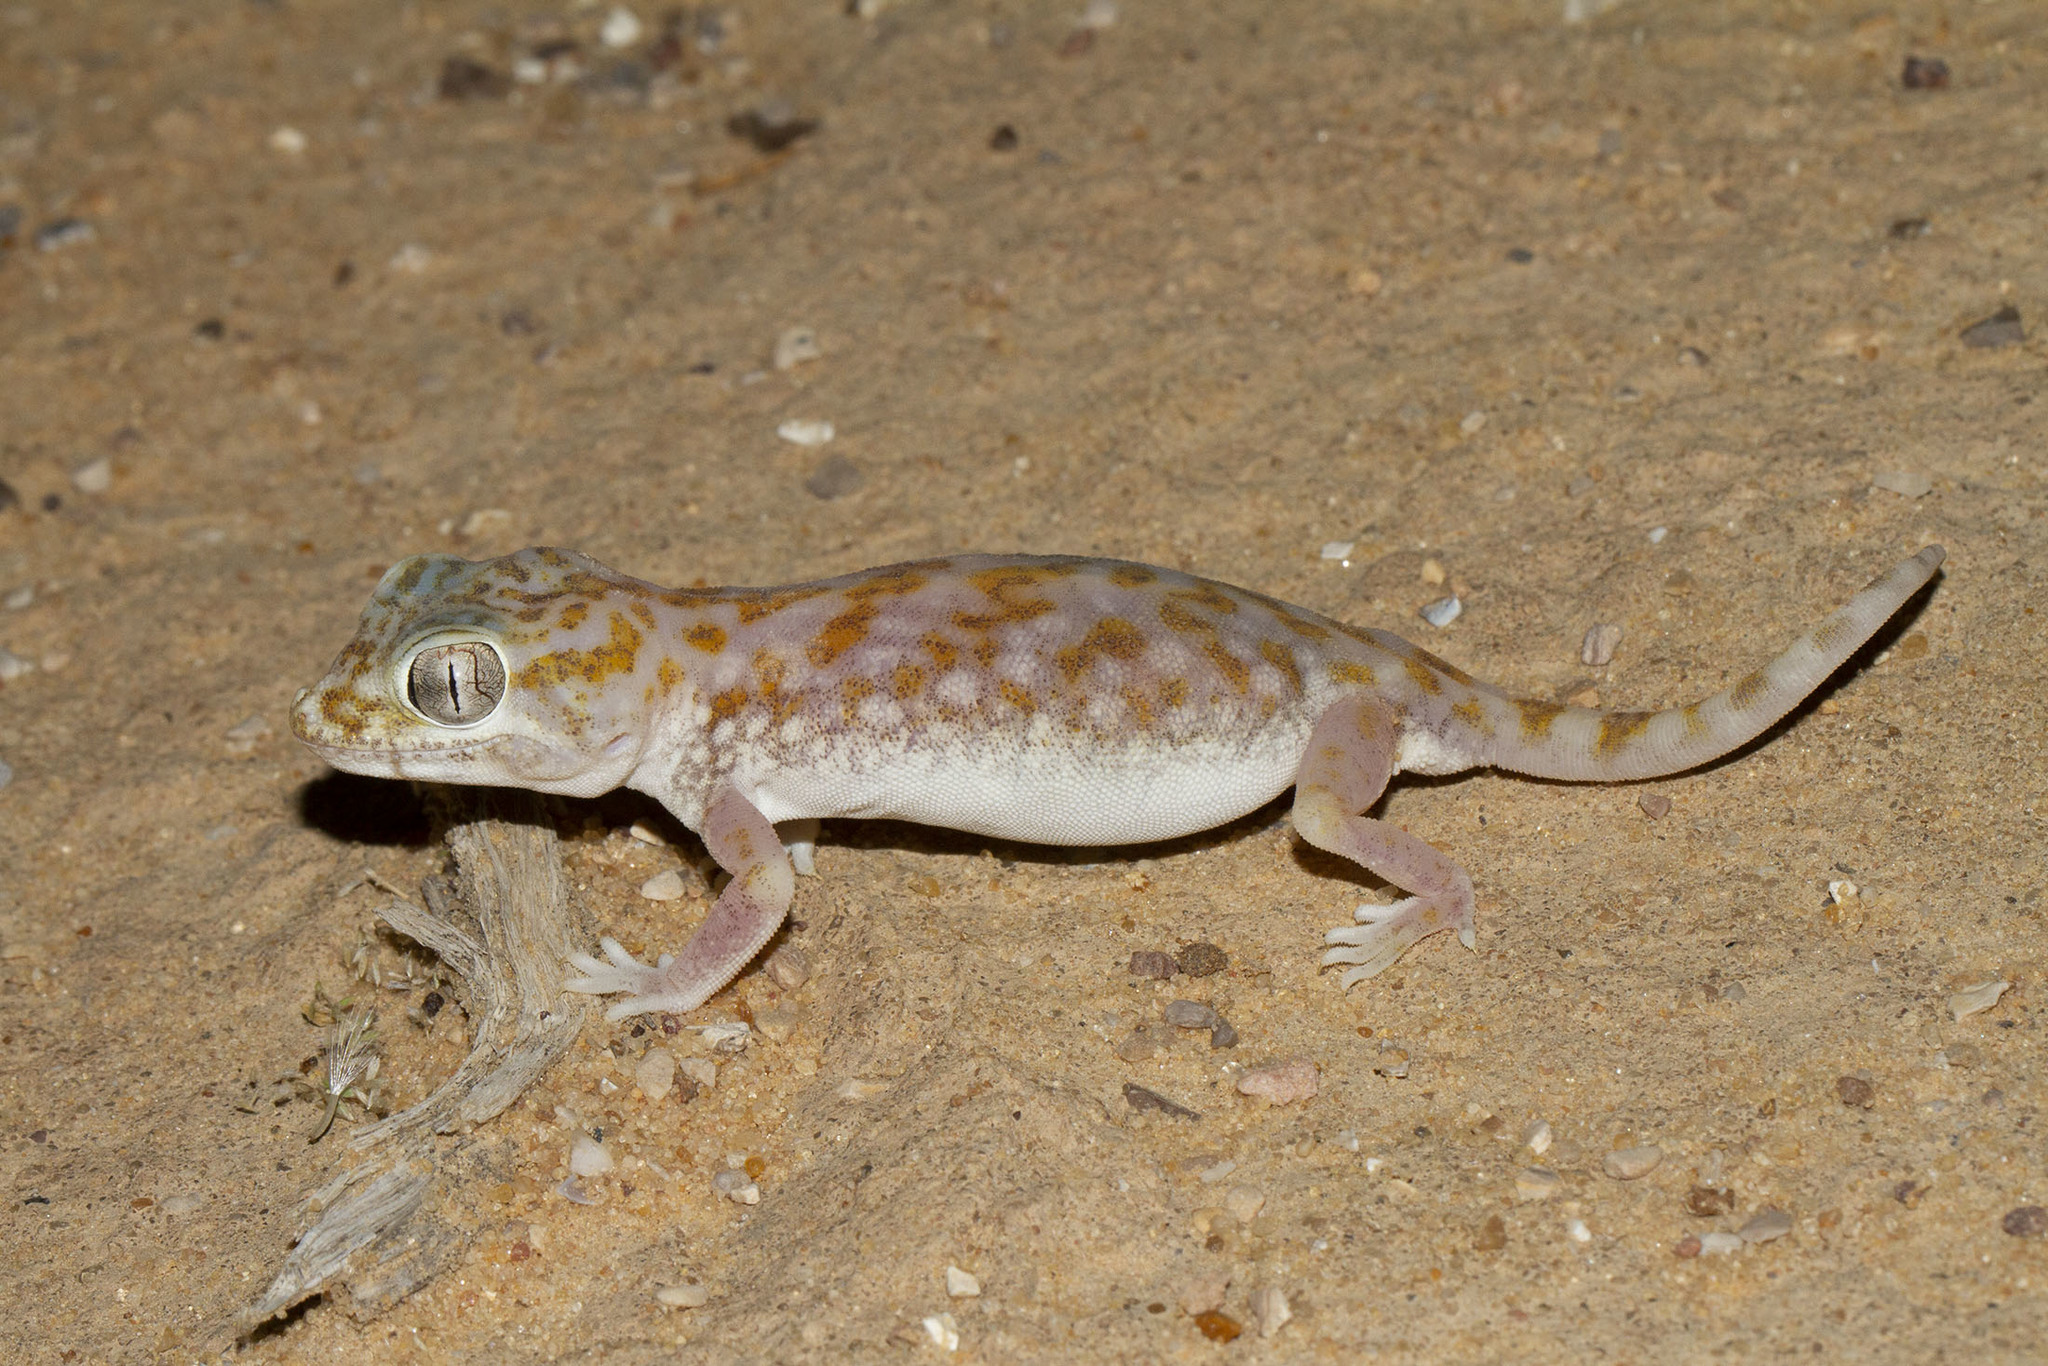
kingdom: Animalia
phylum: Chordata
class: Squamata
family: Gekkonidae
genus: Stenodactylus
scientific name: Stenodactylus doriae
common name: Dune sand gecko
